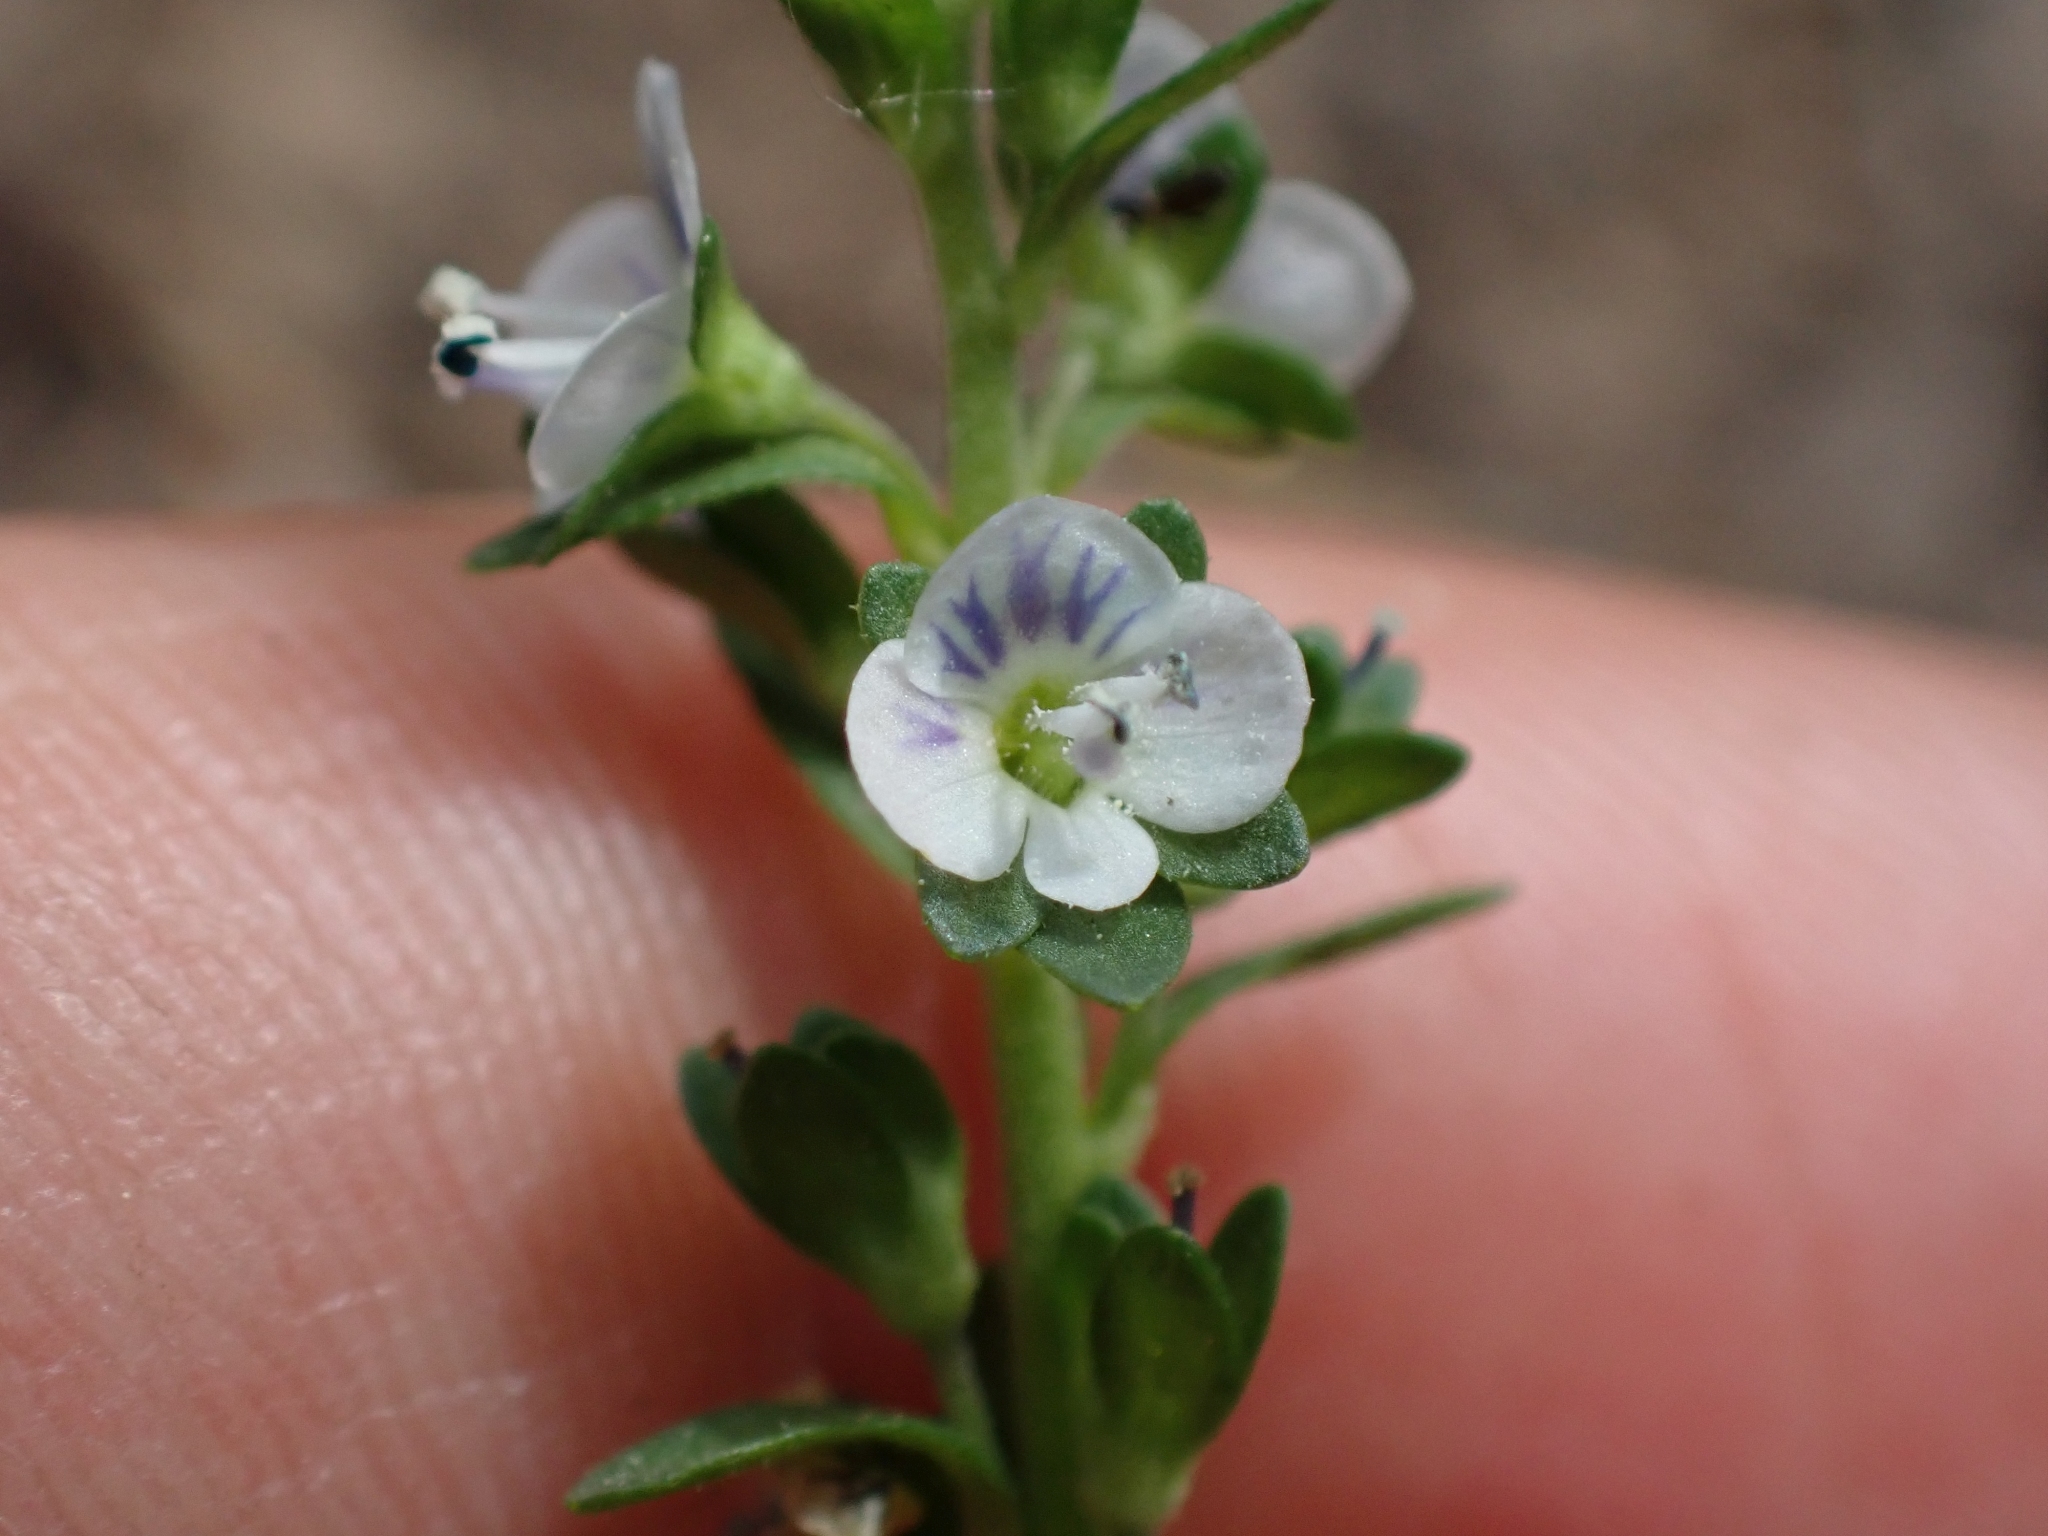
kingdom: Plantae
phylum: Tracheophyta
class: Magnoliopsida
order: Lamiales
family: Plantaginaceae
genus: Veronica
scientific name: Veronica serpyllifolia
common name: Thyme-leaved speedwell
